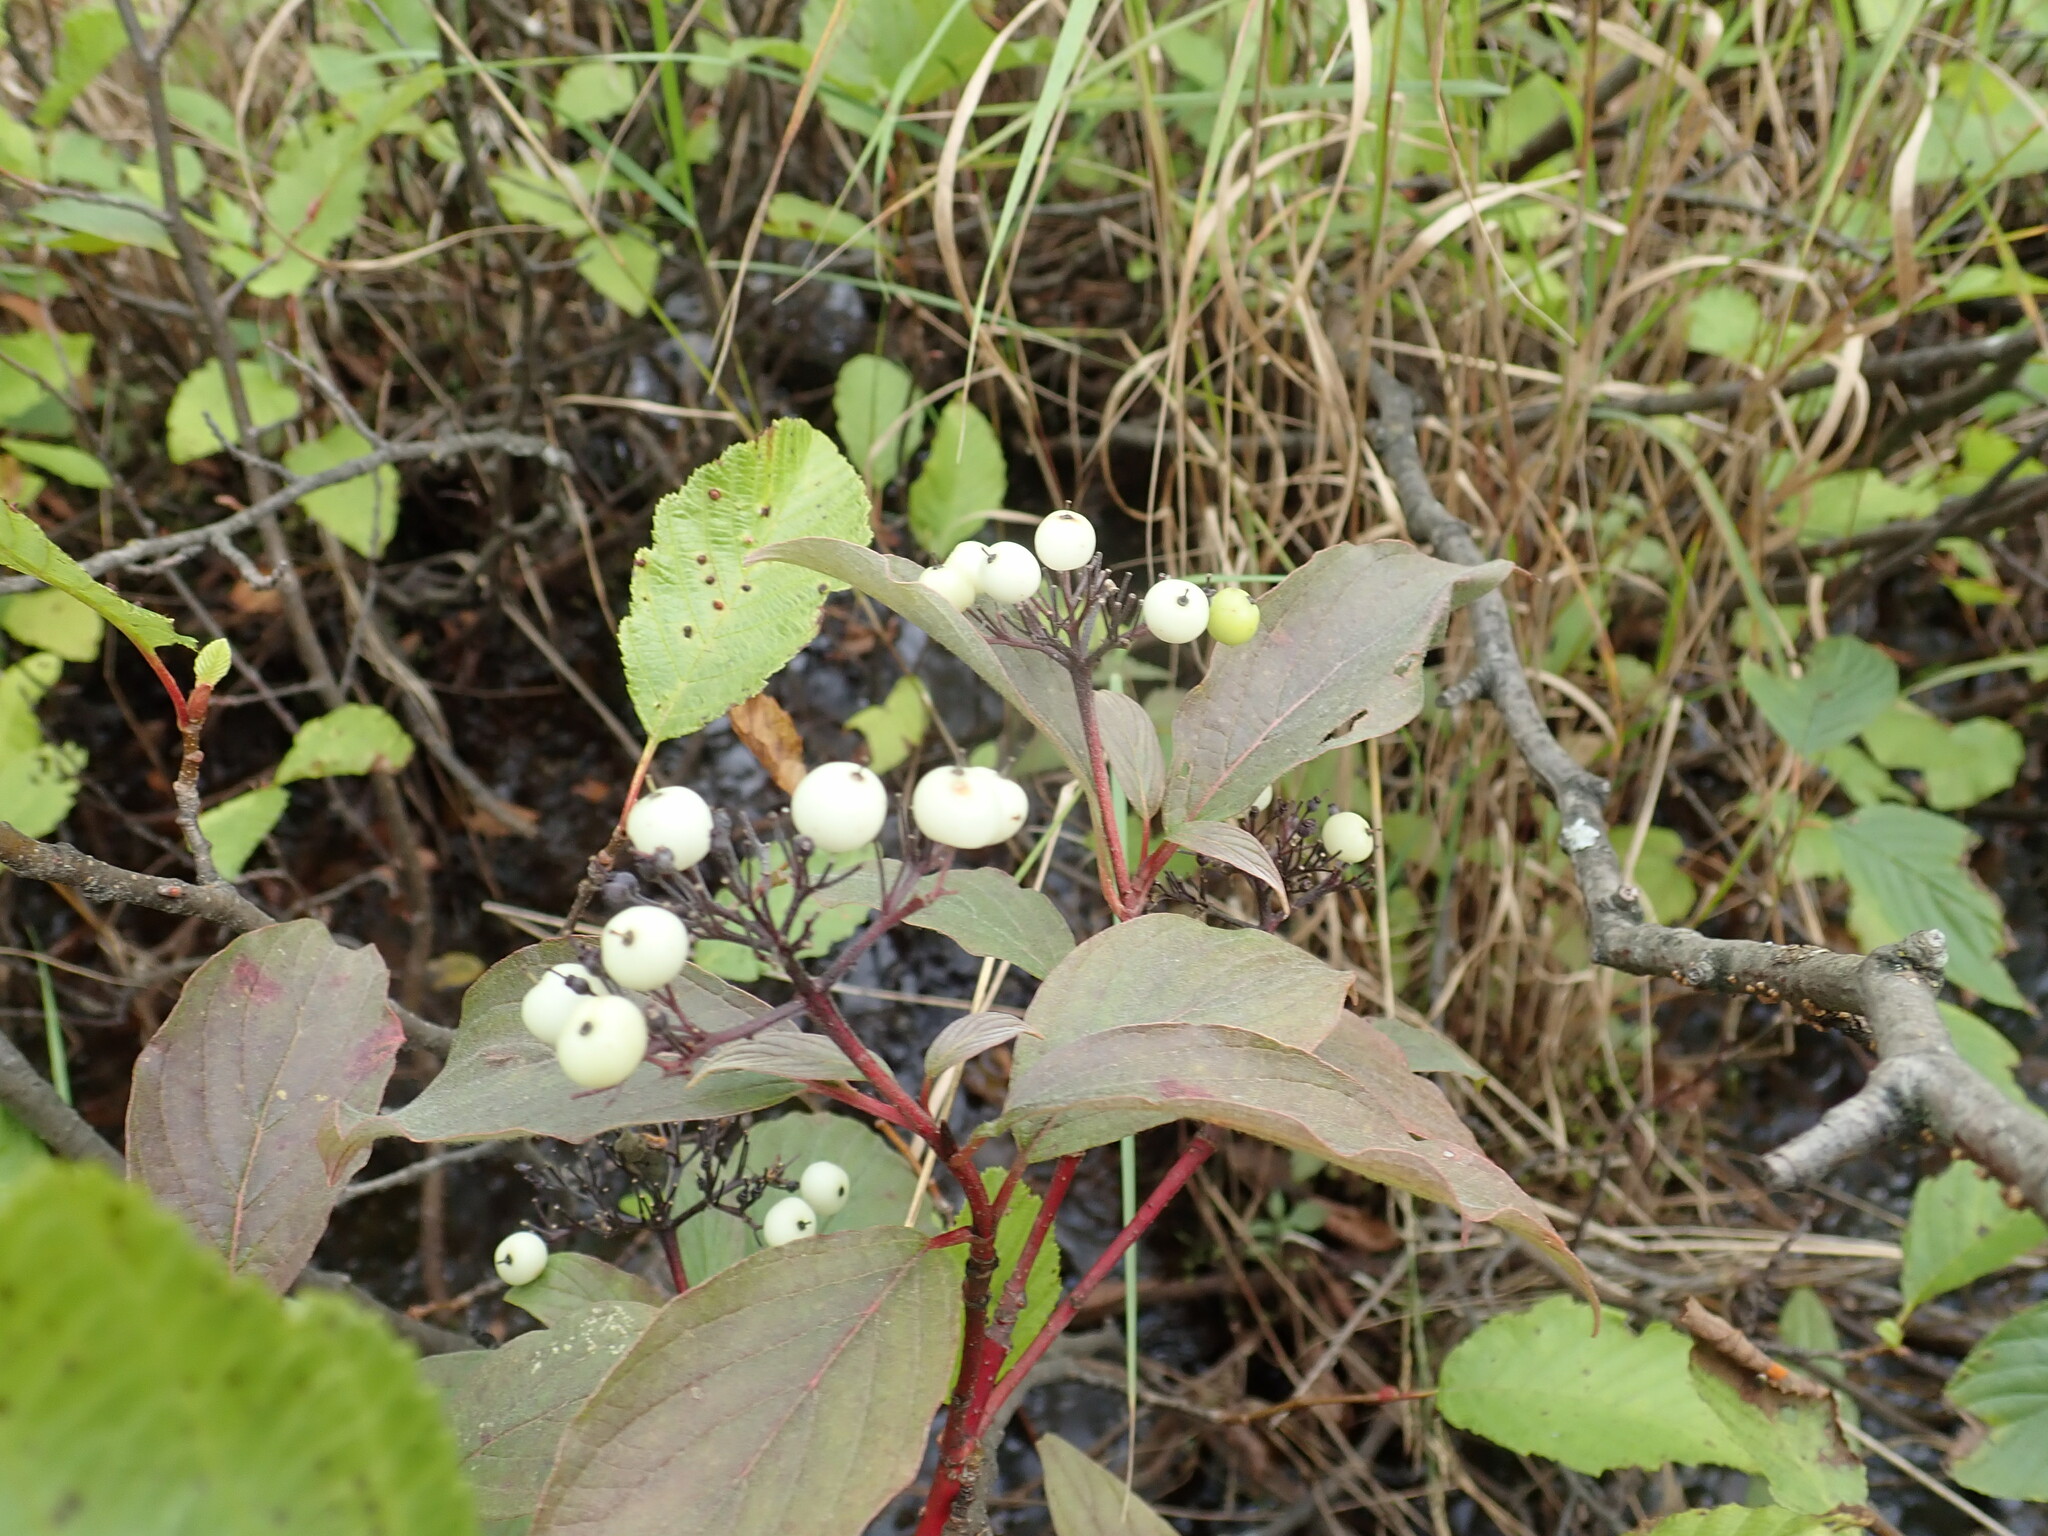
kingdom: Plantae
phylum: Tracheophyta
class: Magnoliopsida
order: Cornales
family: Cornaceae
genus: Cornus
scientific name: Cornus sericea
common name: Red-osier dogwood
